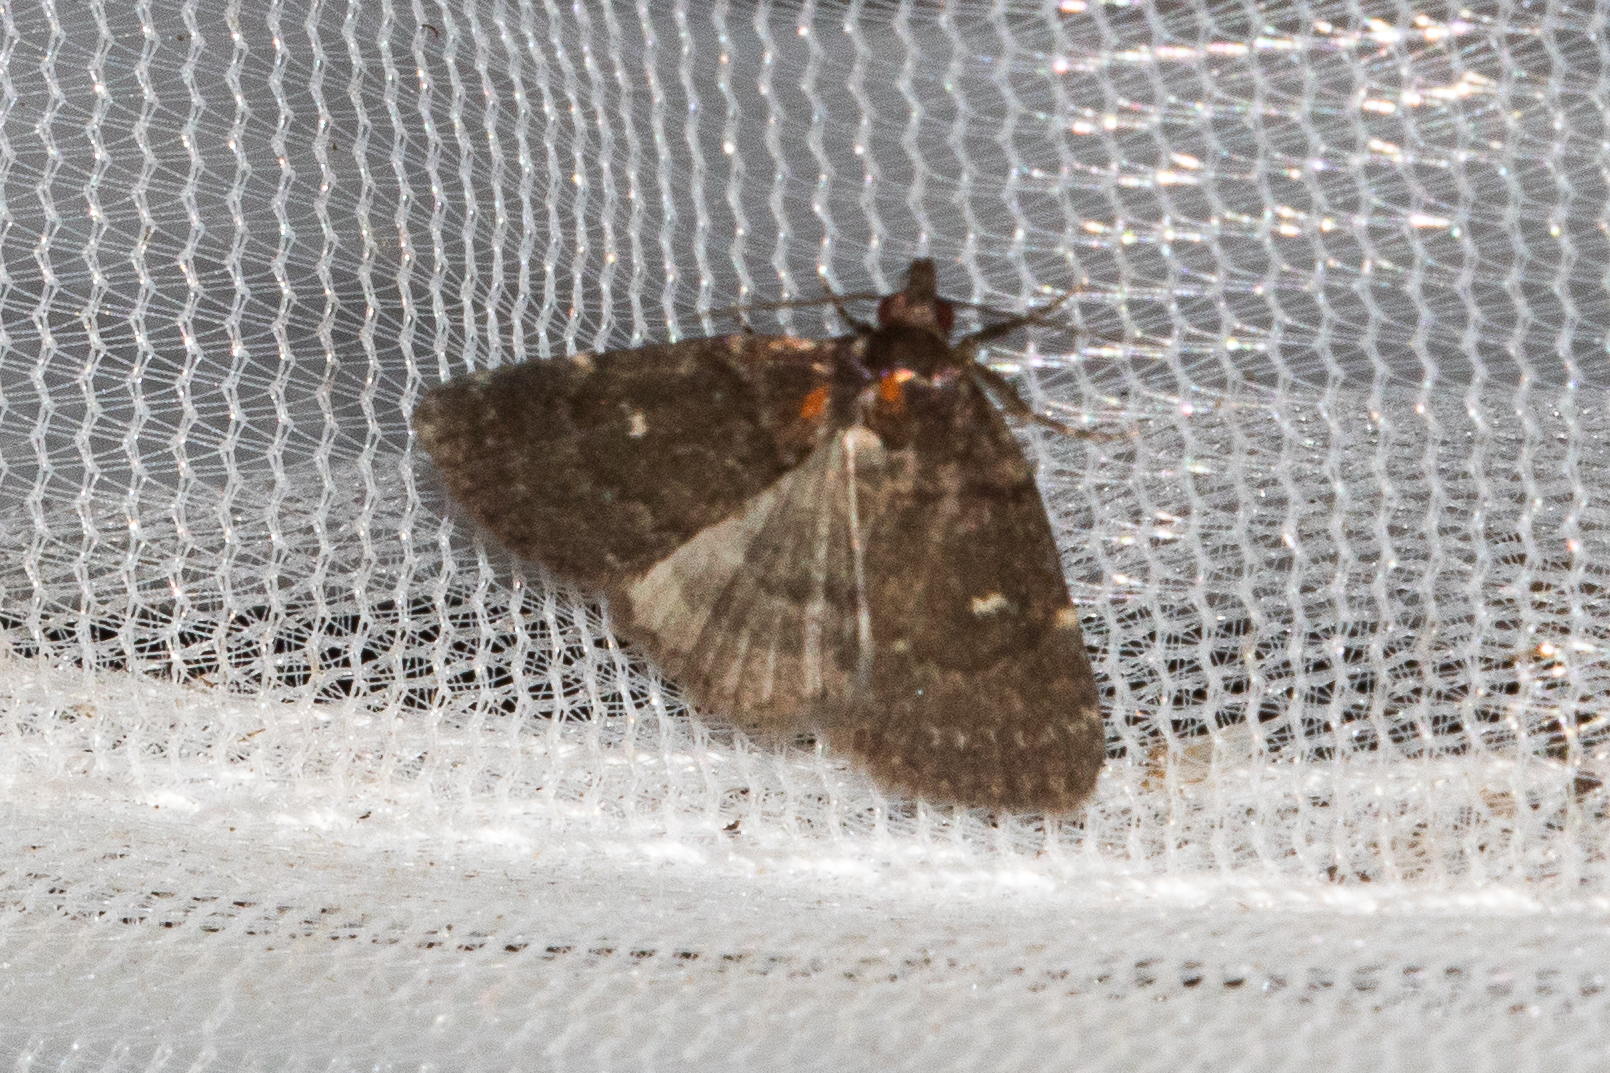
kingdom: Animalia
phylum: Arthropoda
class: Insecta
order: Lepidoptera
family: Erebidae
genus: Idia
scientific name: Idia julia
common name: Julia's idia moth
